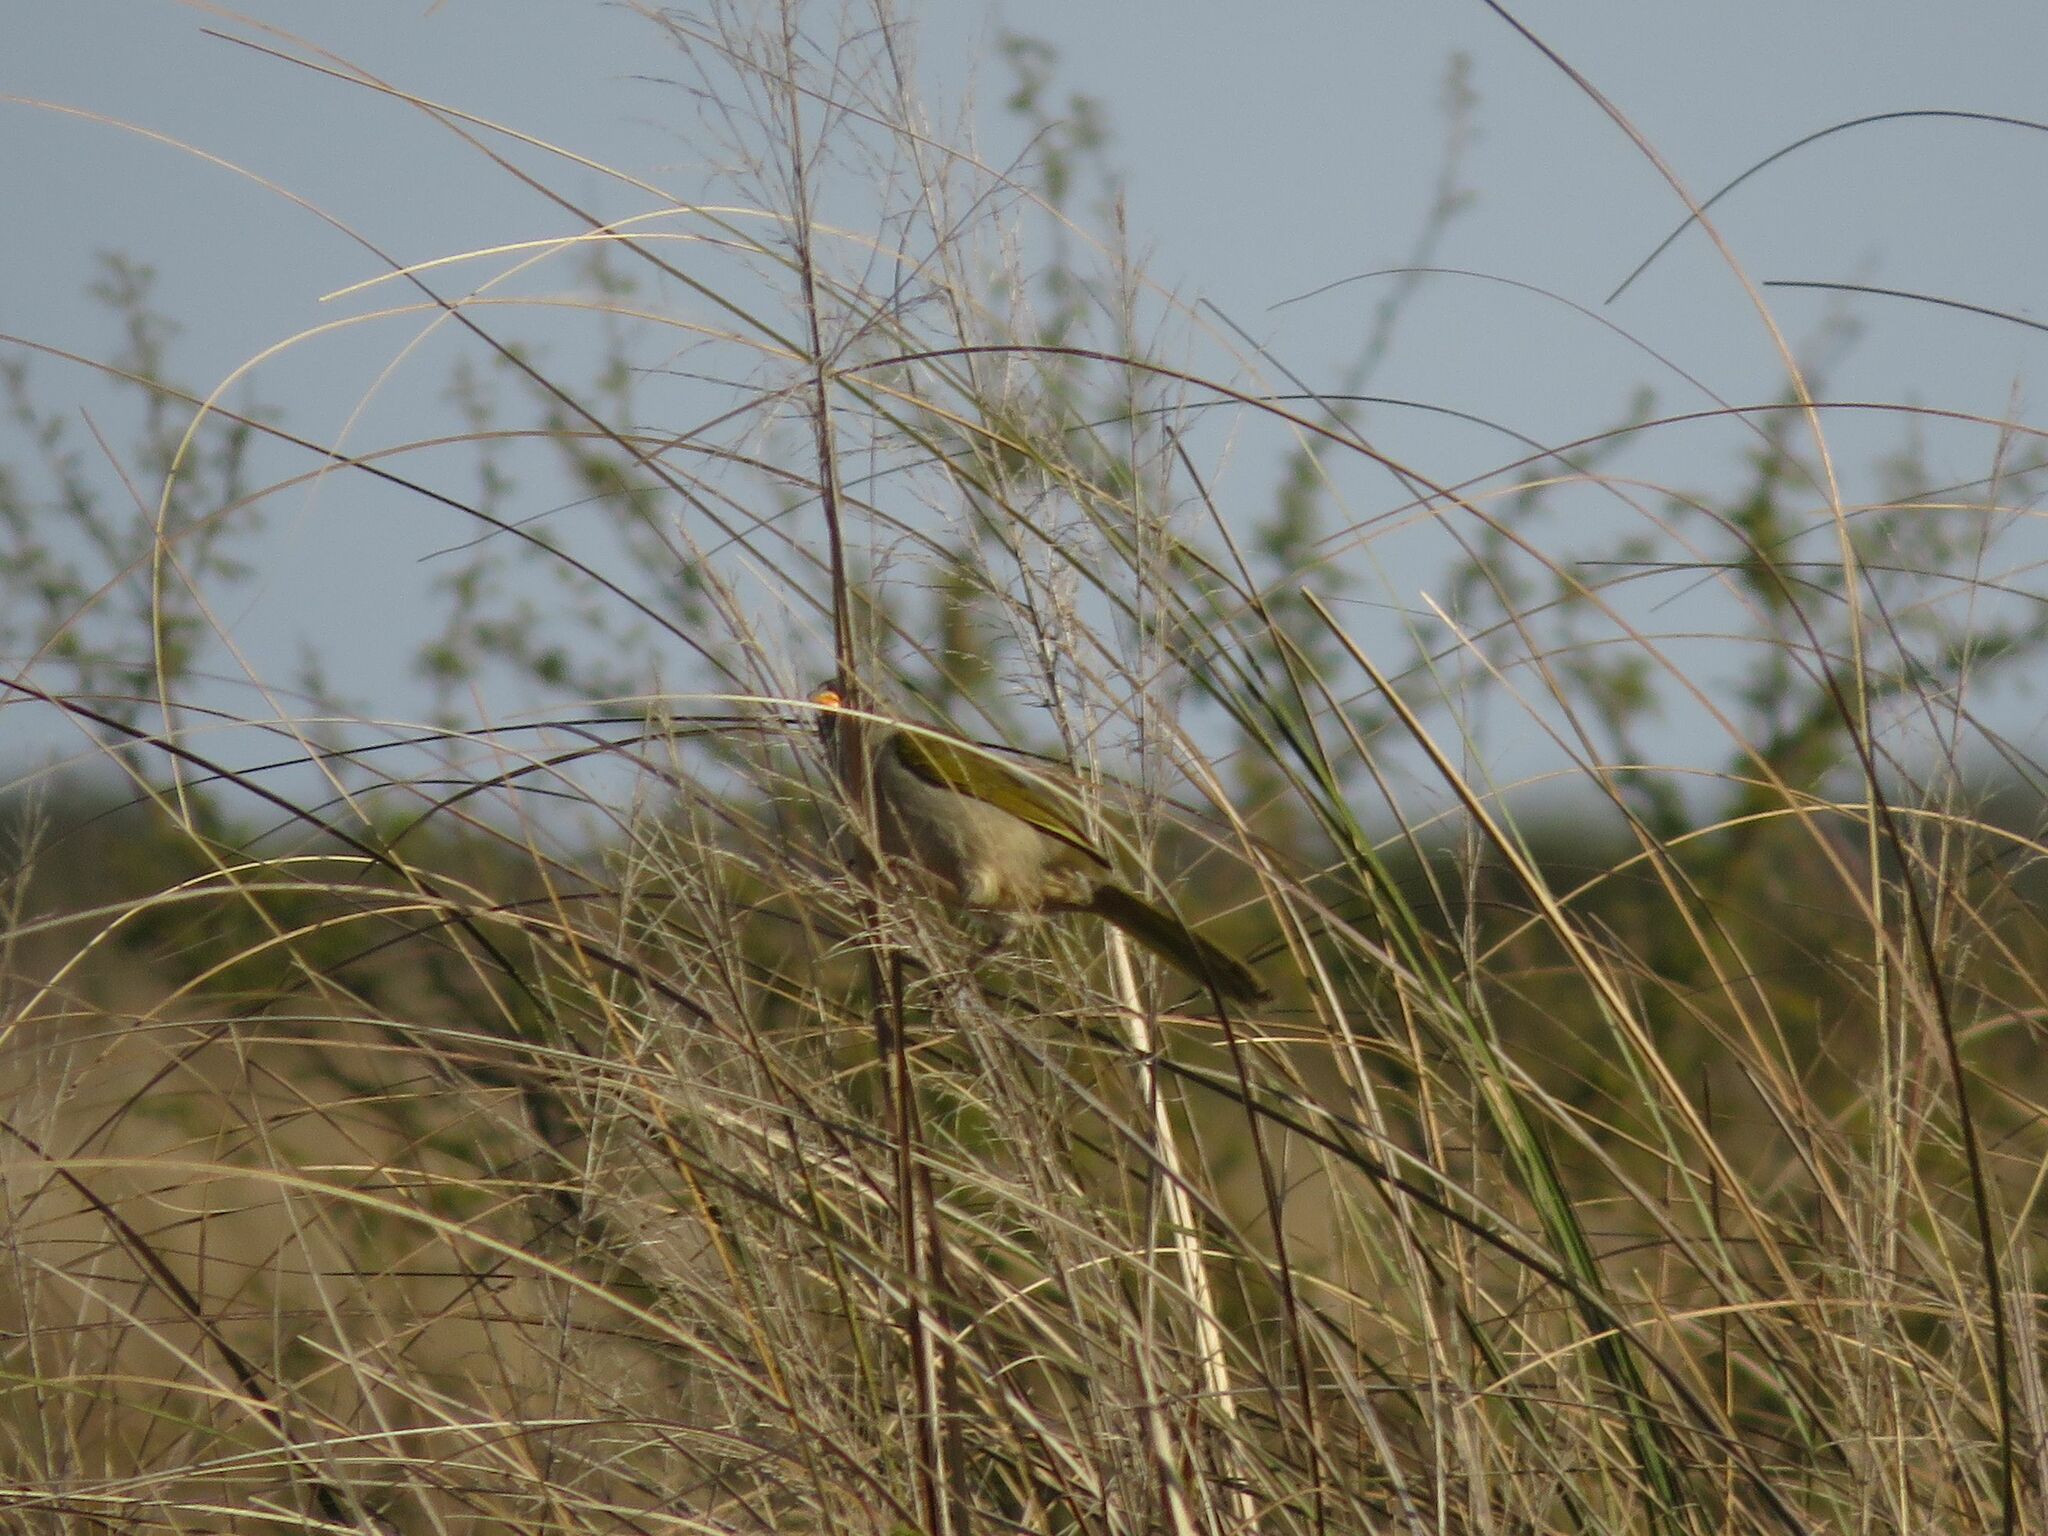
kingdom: Animalia
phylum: Chordata
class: Aves
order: Passeriformes
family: Thraupidae
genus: Embernagra
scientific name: Embernagra platensis
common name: Pampa finch
